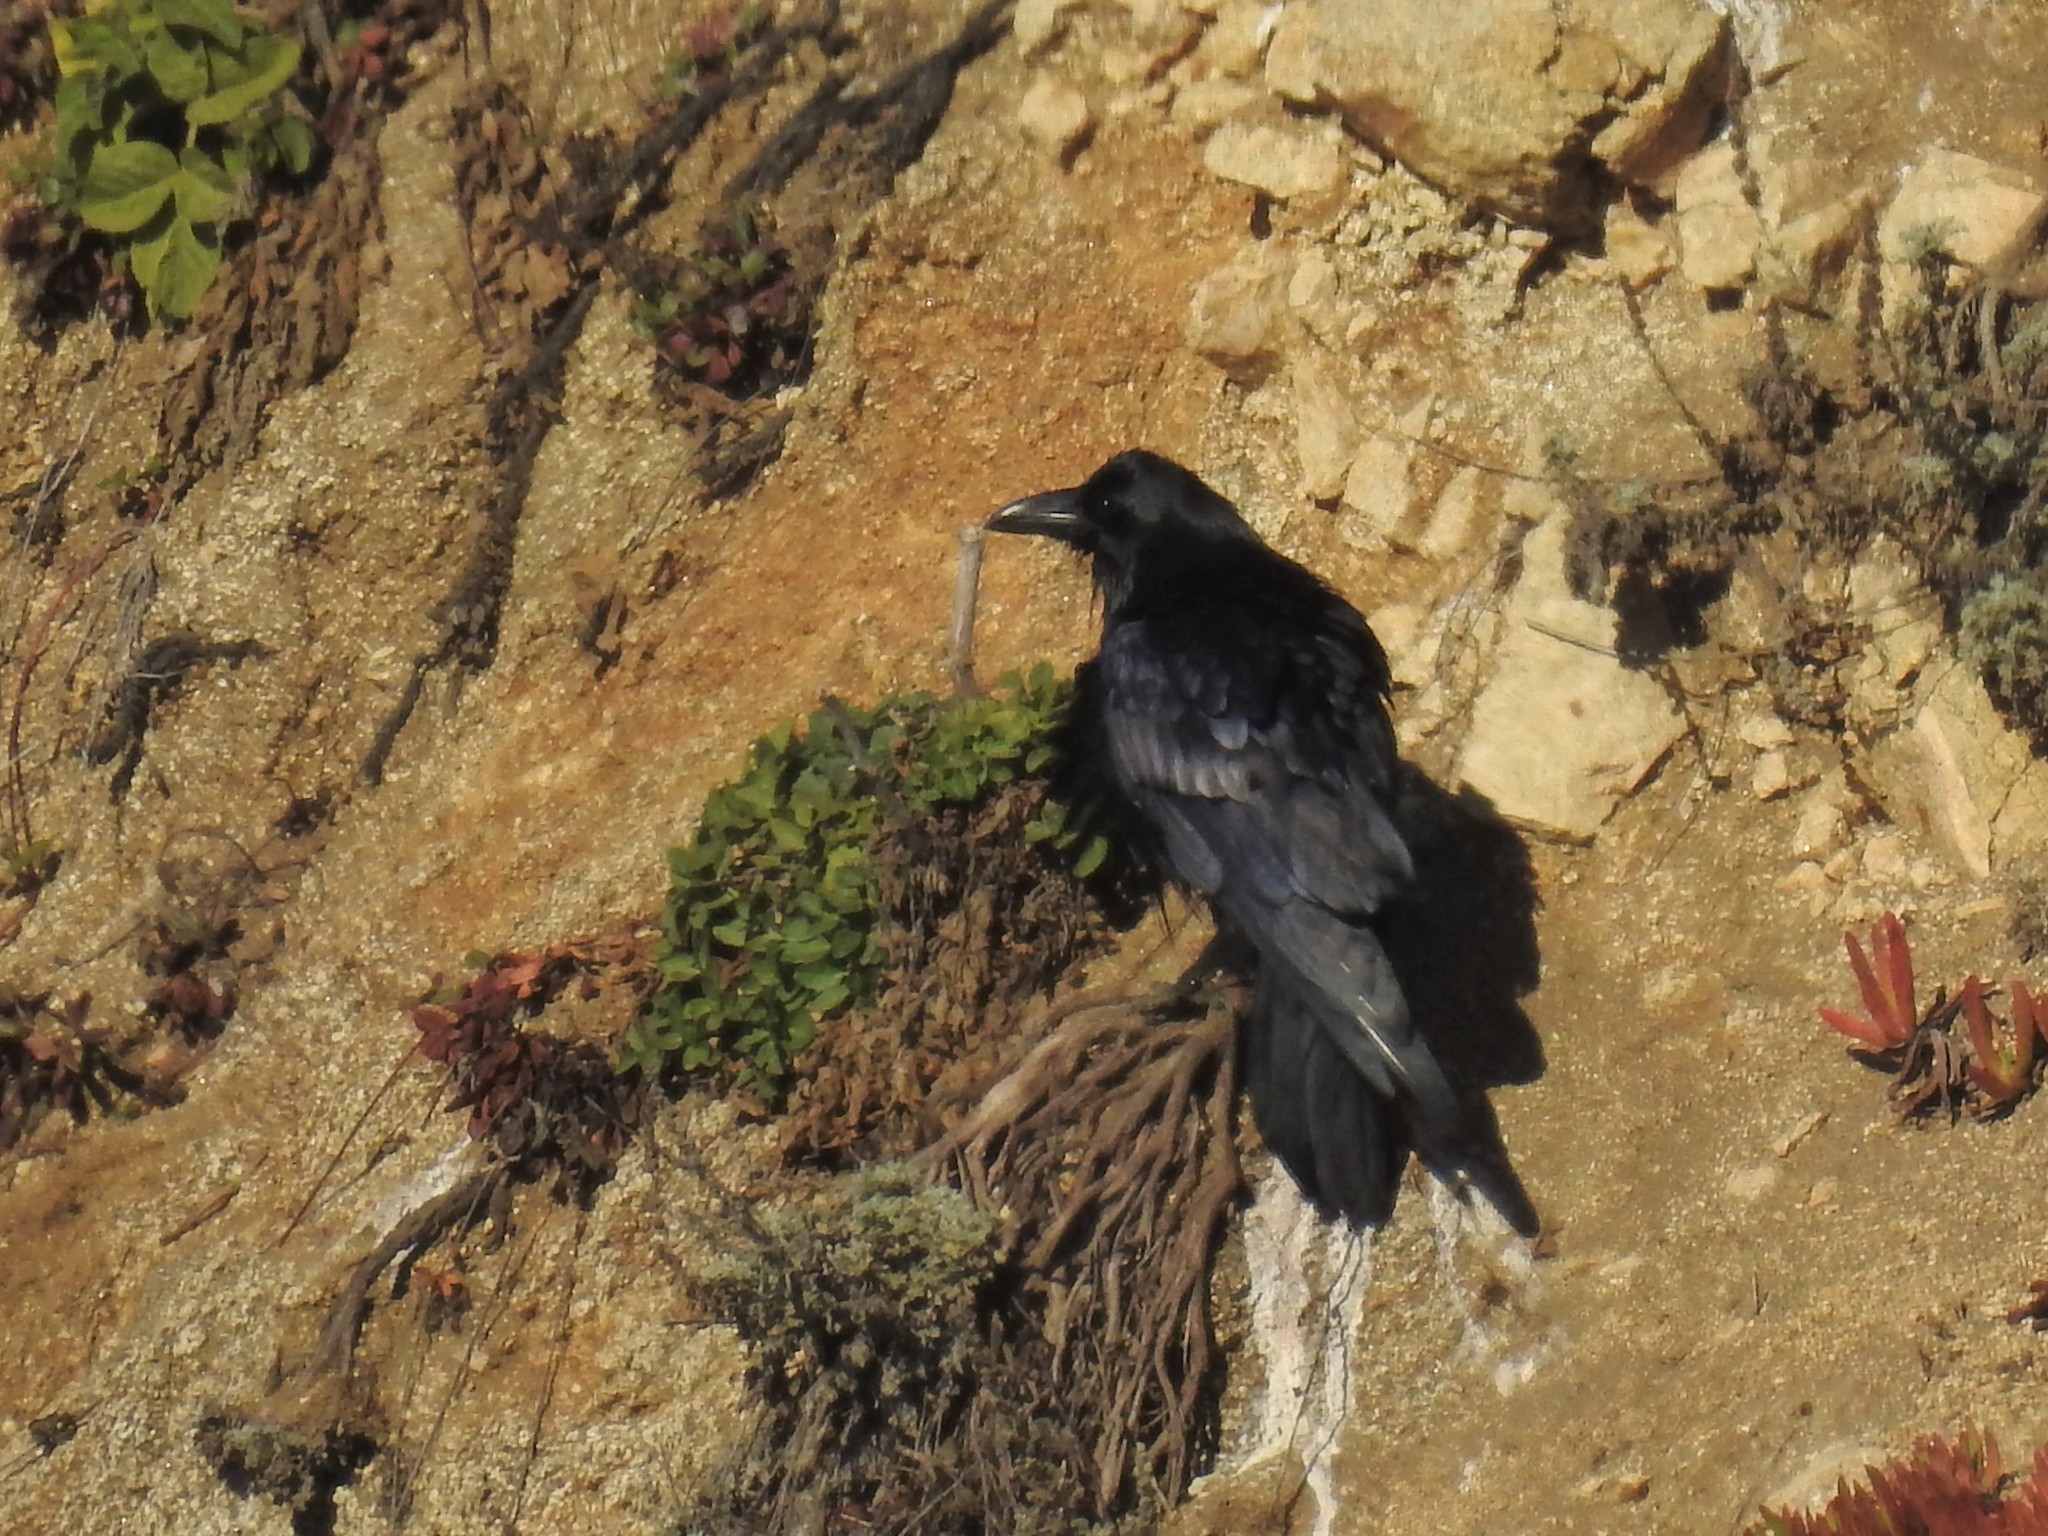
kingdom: Animalia
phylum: Chordata
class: Aves
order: Passeriformes
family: Corvidae
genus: Corvus
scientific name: Corvus corax
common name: Common raven
